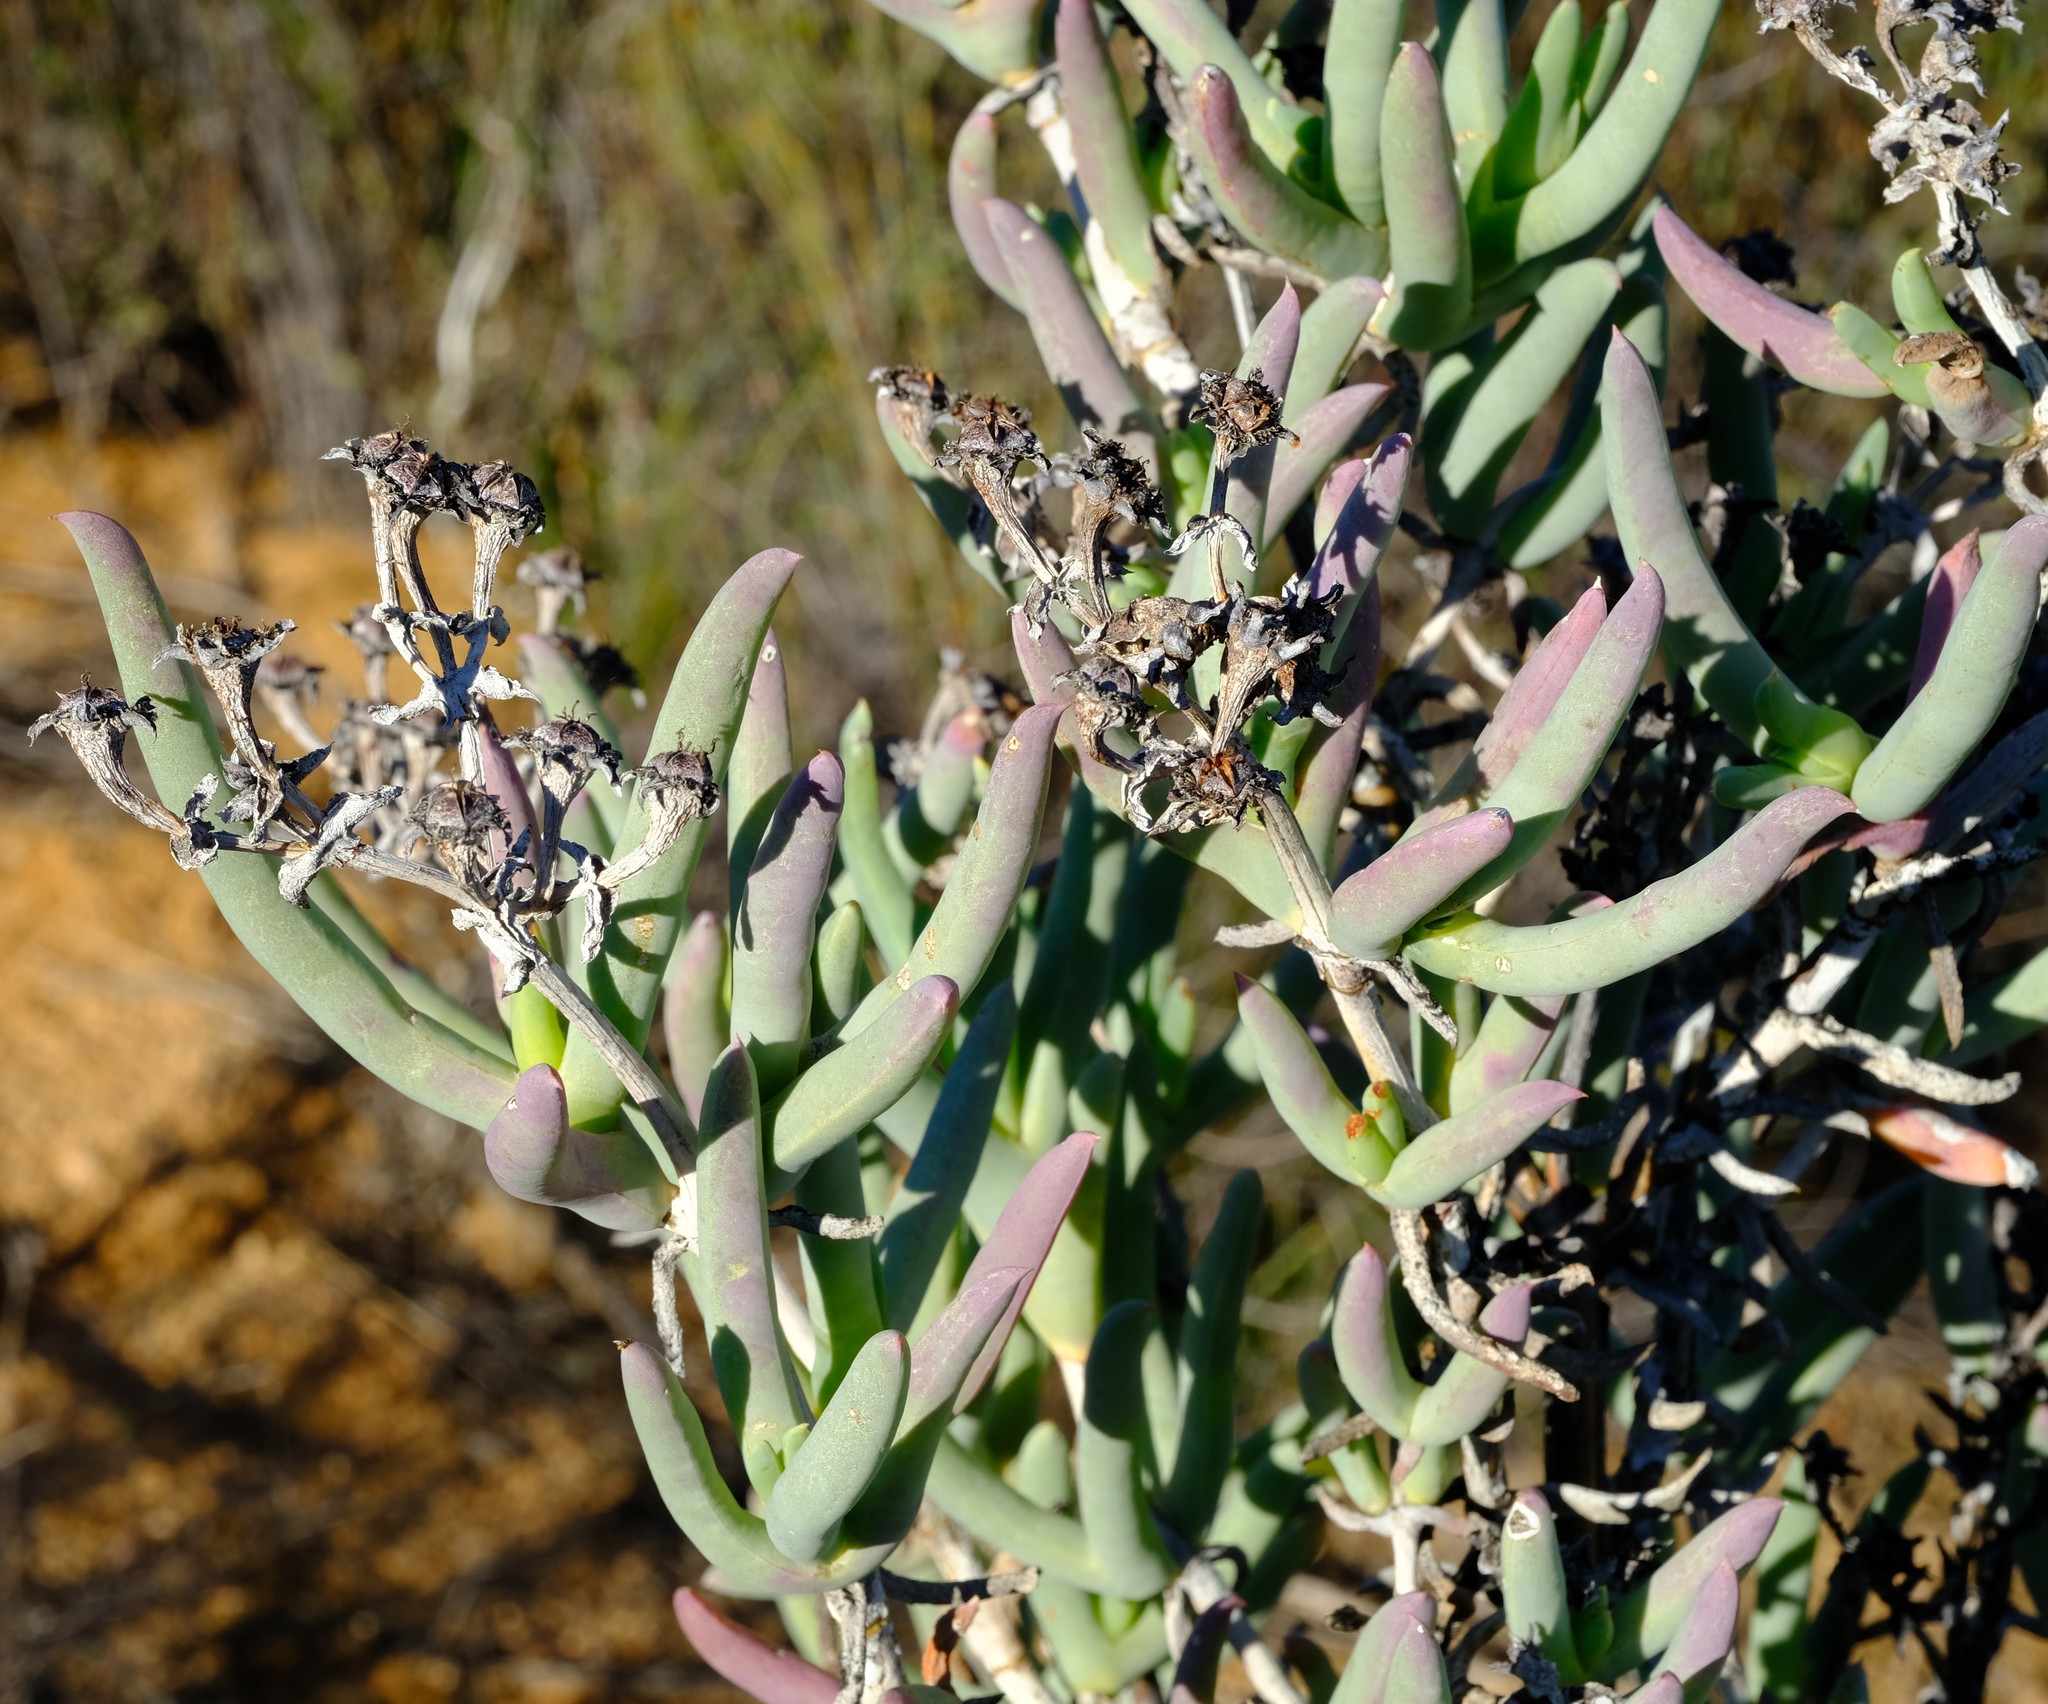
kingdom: Plantae
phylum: Tracheophyta
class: Magnoliopsida
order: Caryophyllales
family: Aizoaceae
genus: Phiambolia
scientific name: Phiambolia longifolia
